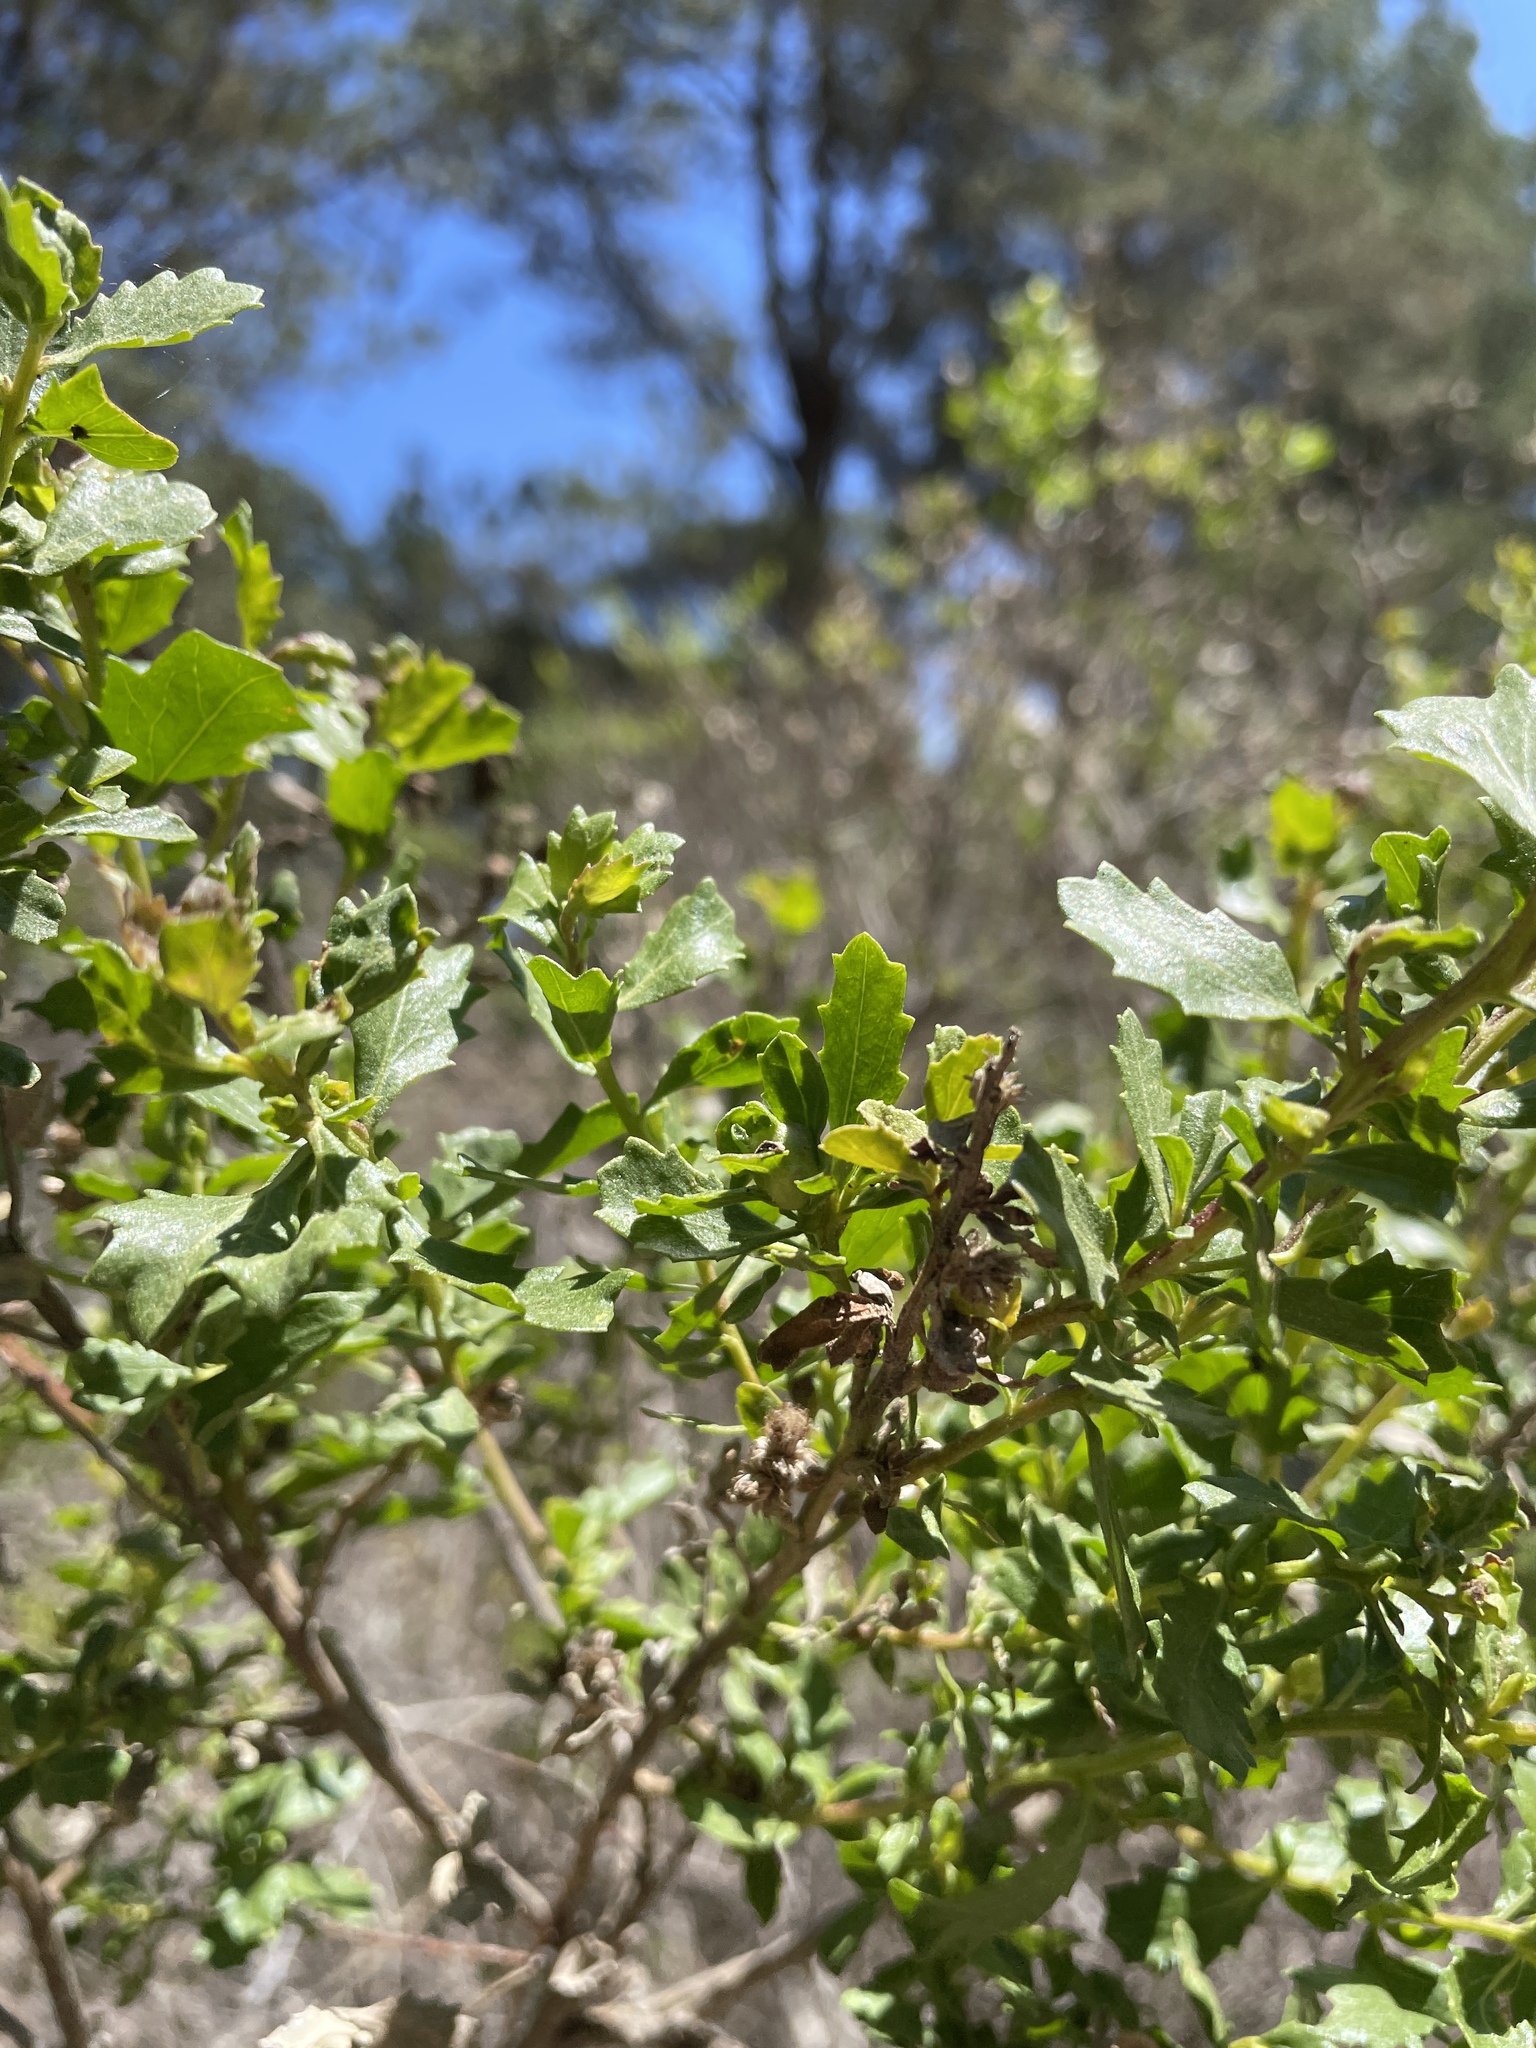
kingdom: Plantae
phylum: Tracheophyta
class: Magnoliopsida
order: Asterales
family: Asteraceae
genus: Baccharis
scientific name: Baccharis pilularis
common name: Coyotebrush
